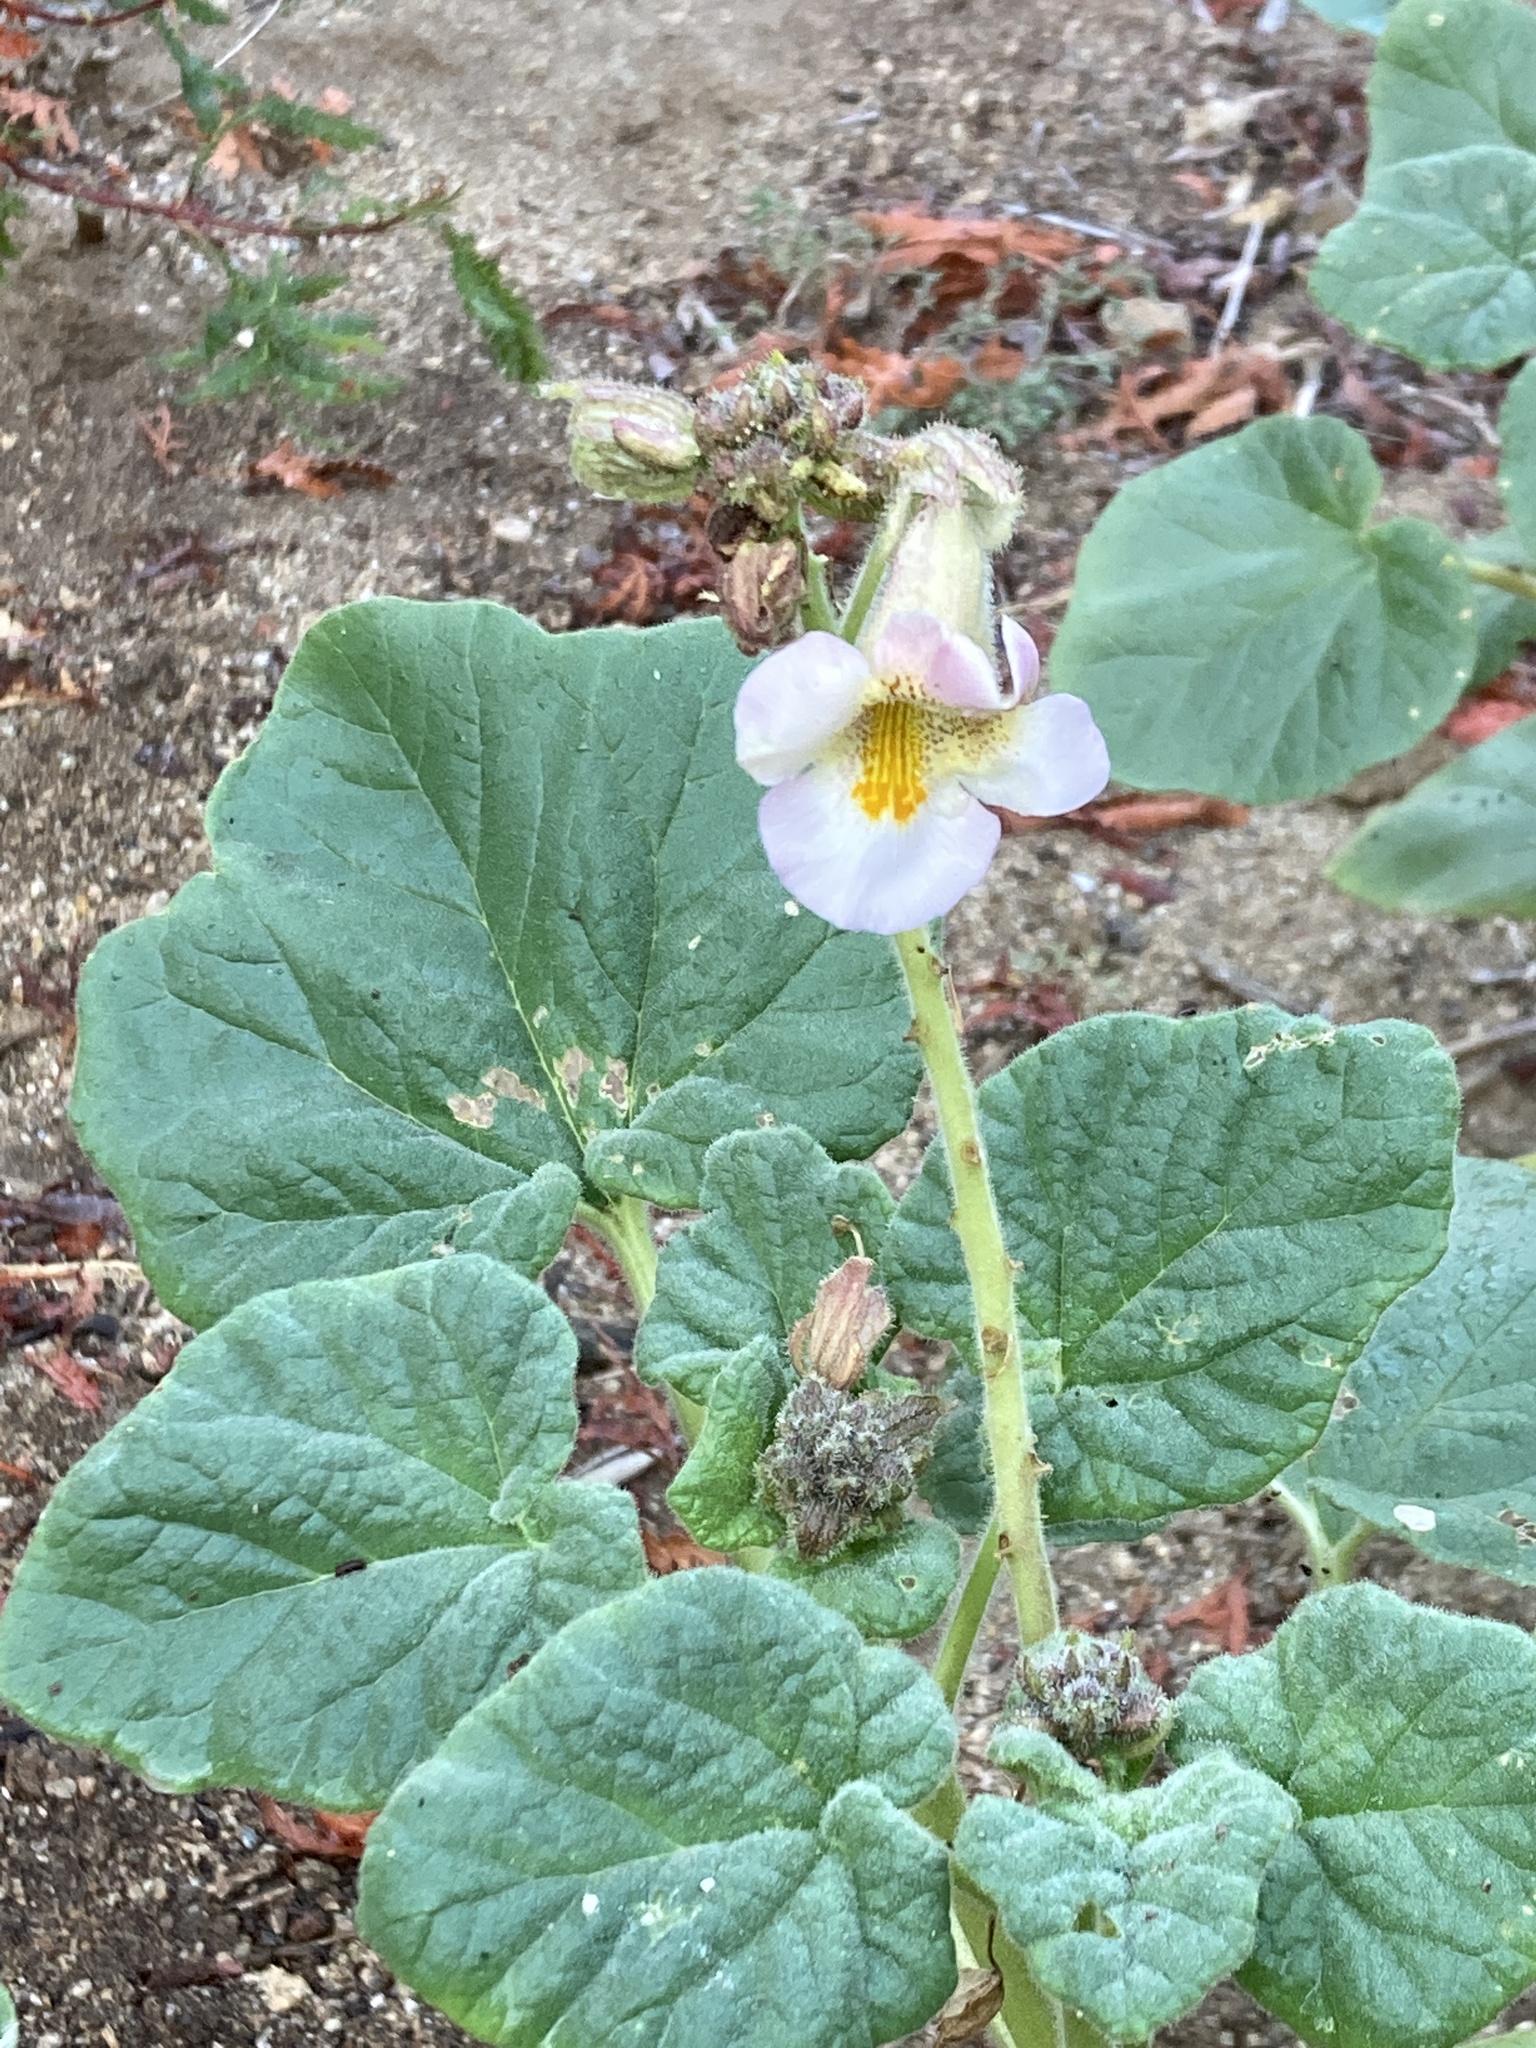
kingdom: Plantae
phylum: Tracheophyta
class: Magnoliopsida
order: Lamiales
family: Martyniaceae
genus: Proboscidea
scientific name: Proboscidea louisianica
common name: Elephant tusks
